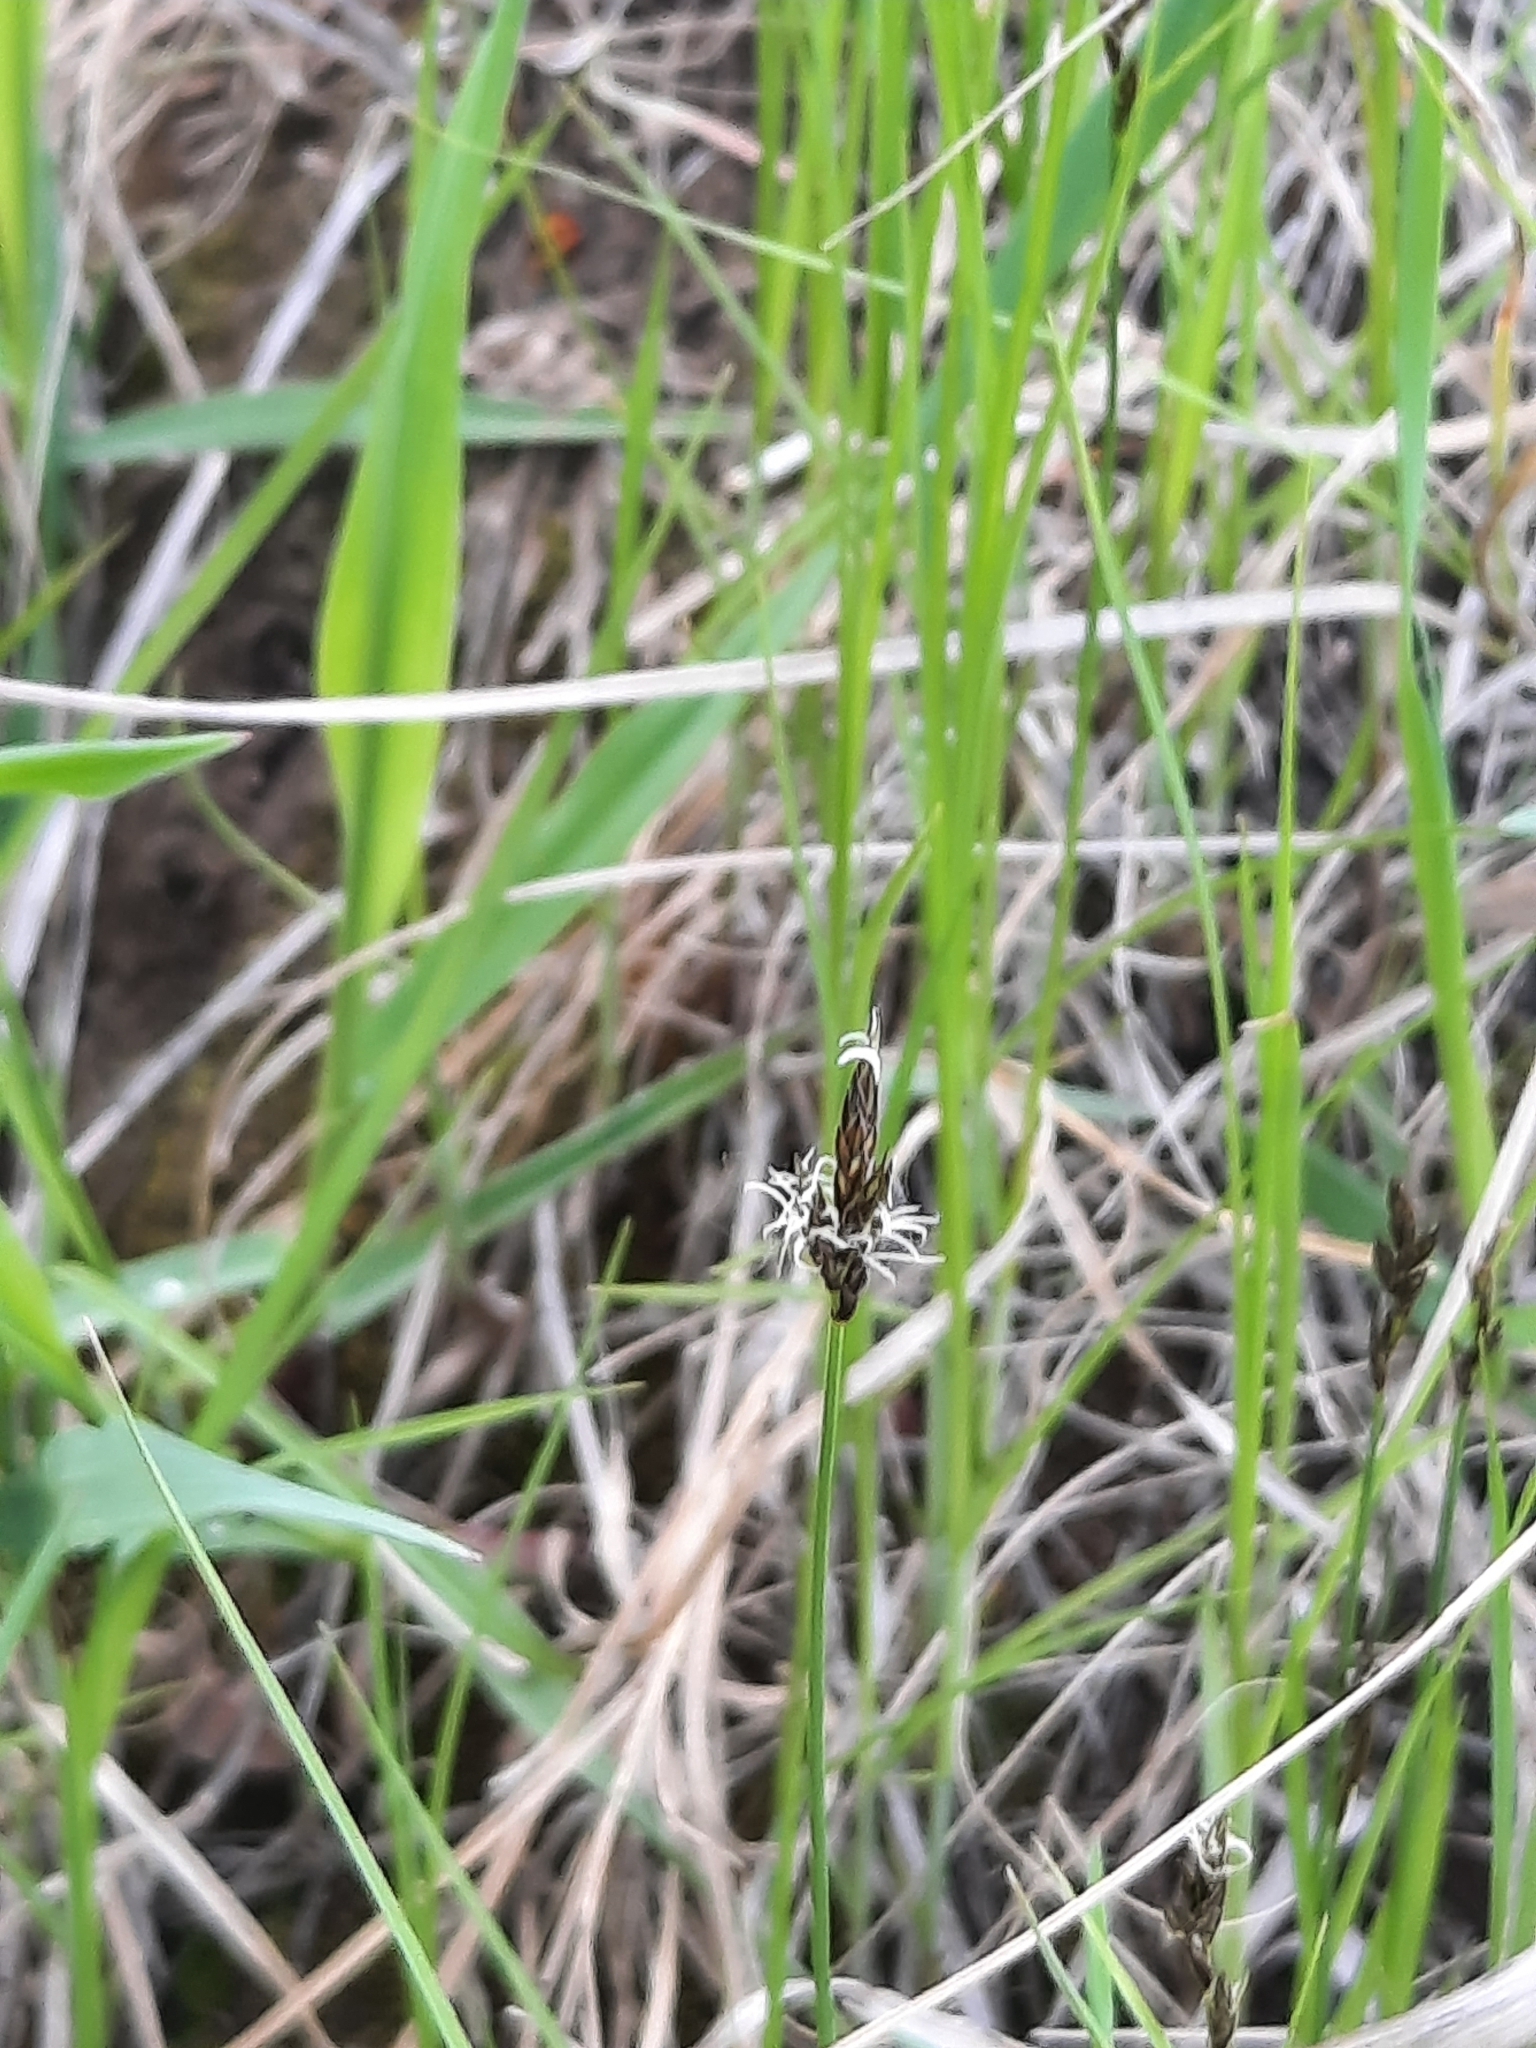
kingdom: Plantae
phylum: Tracheophyta
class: Liliopsida
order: Poales
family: Cyperaceae
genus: Carex
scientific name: Carex praecox
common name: Early sedge
